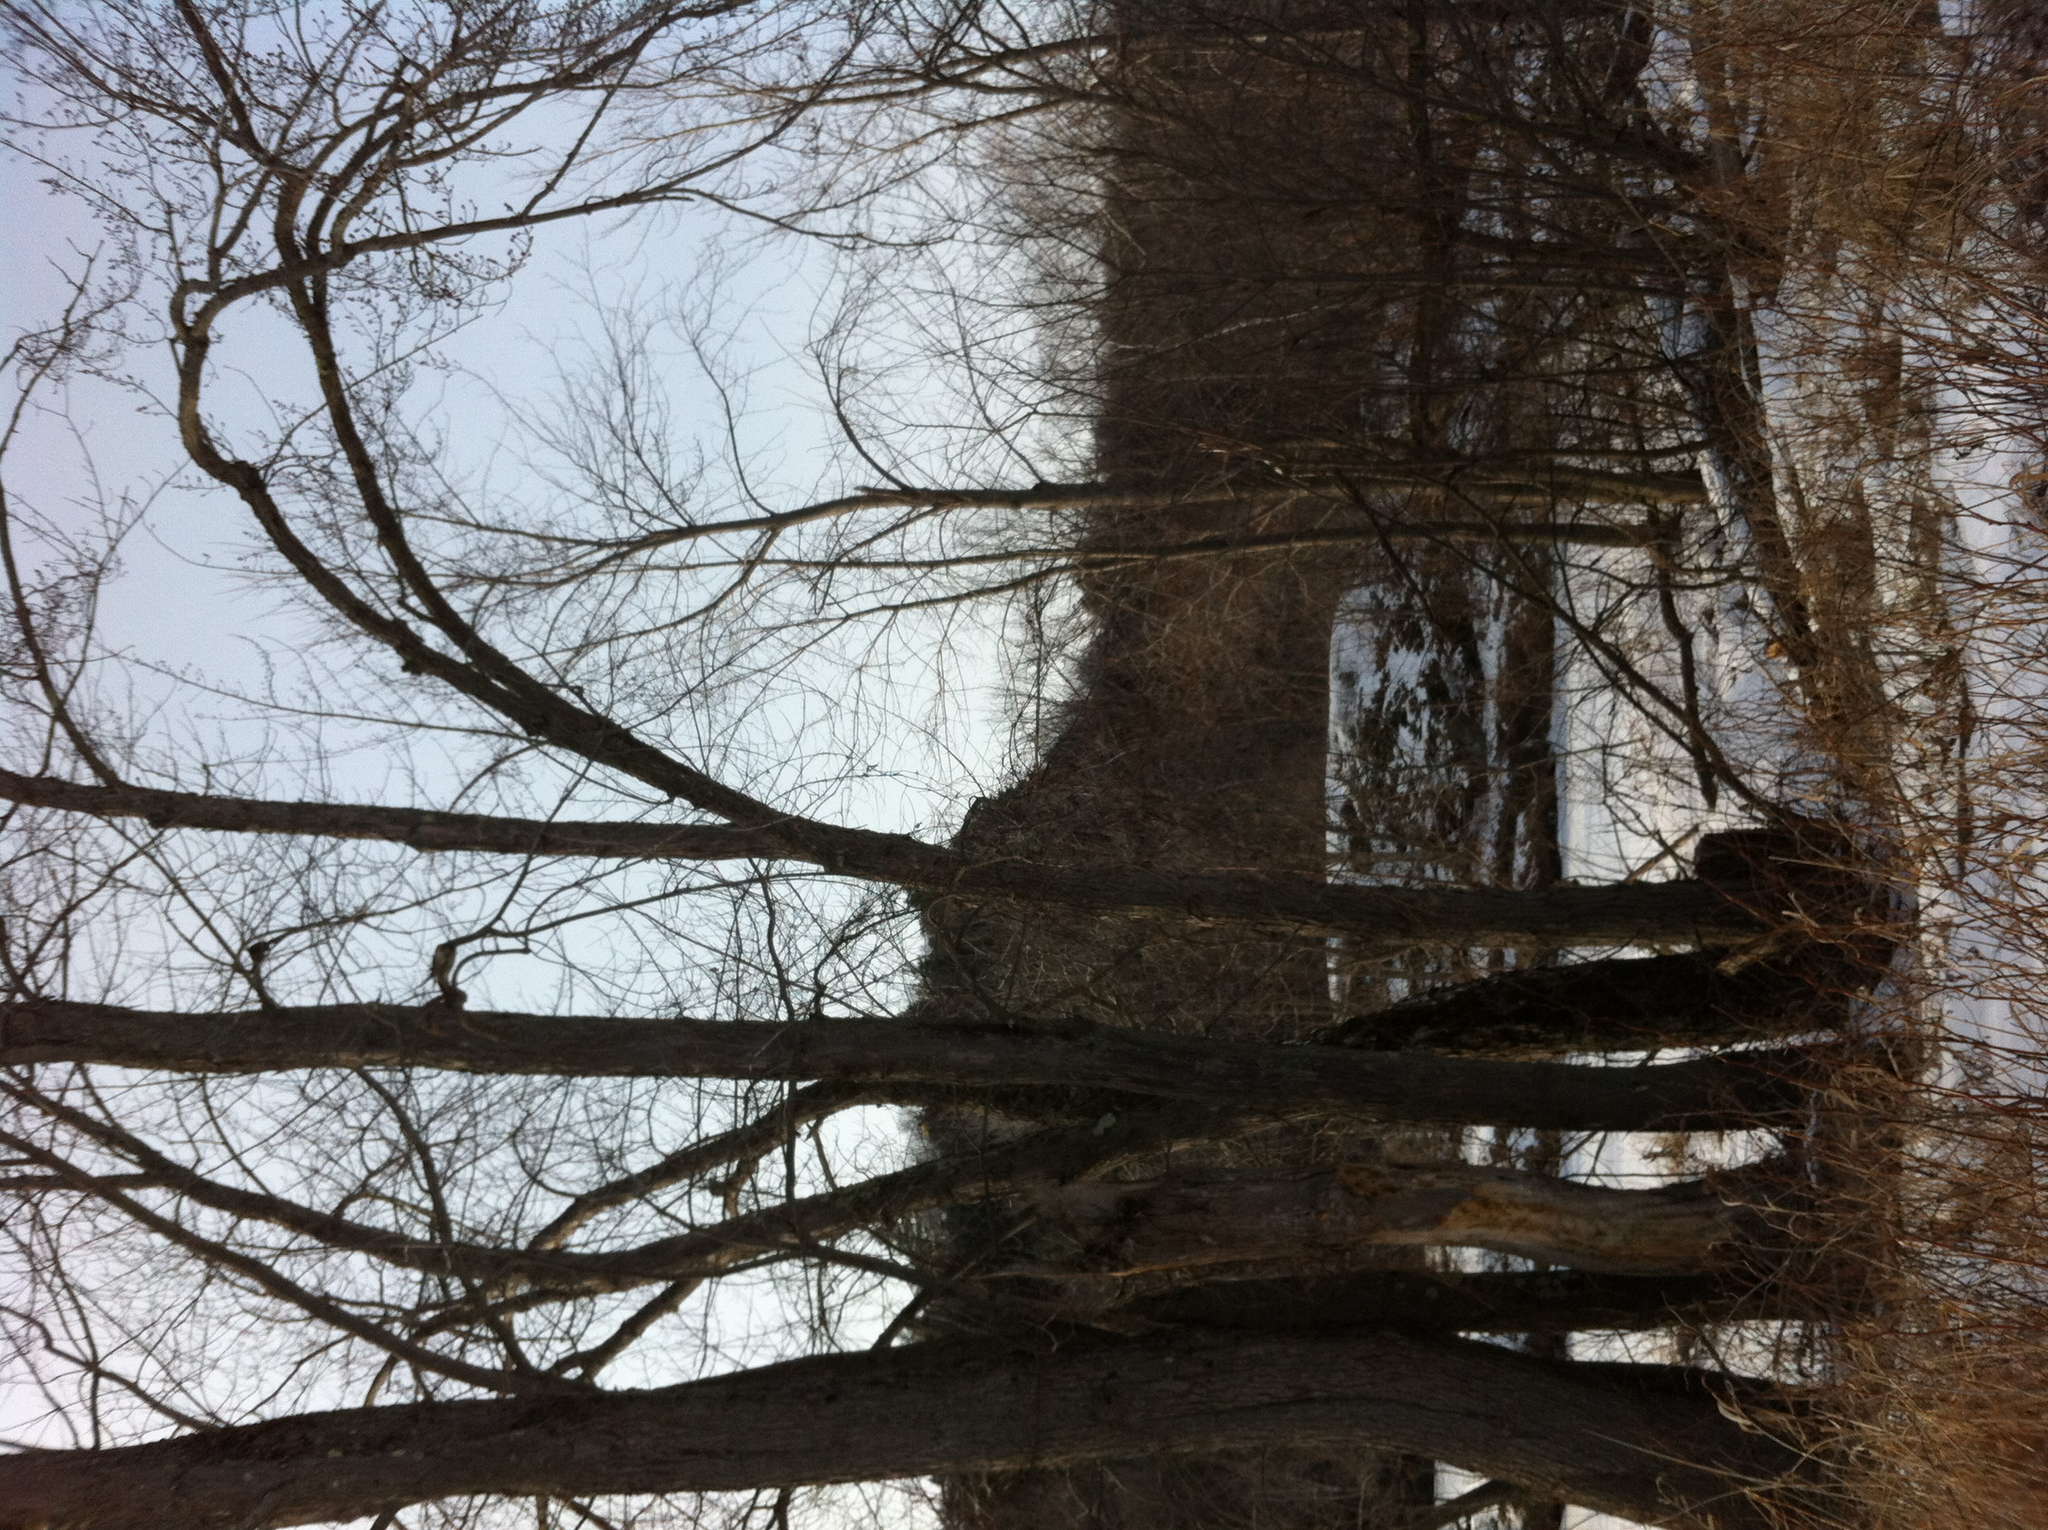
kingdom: Plantae
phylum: Tracheophyta
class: Magnoliopsida
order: Sapindales
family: Sapindaceae
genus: Acer
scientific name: Acer saccharinum
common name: Silver maple
